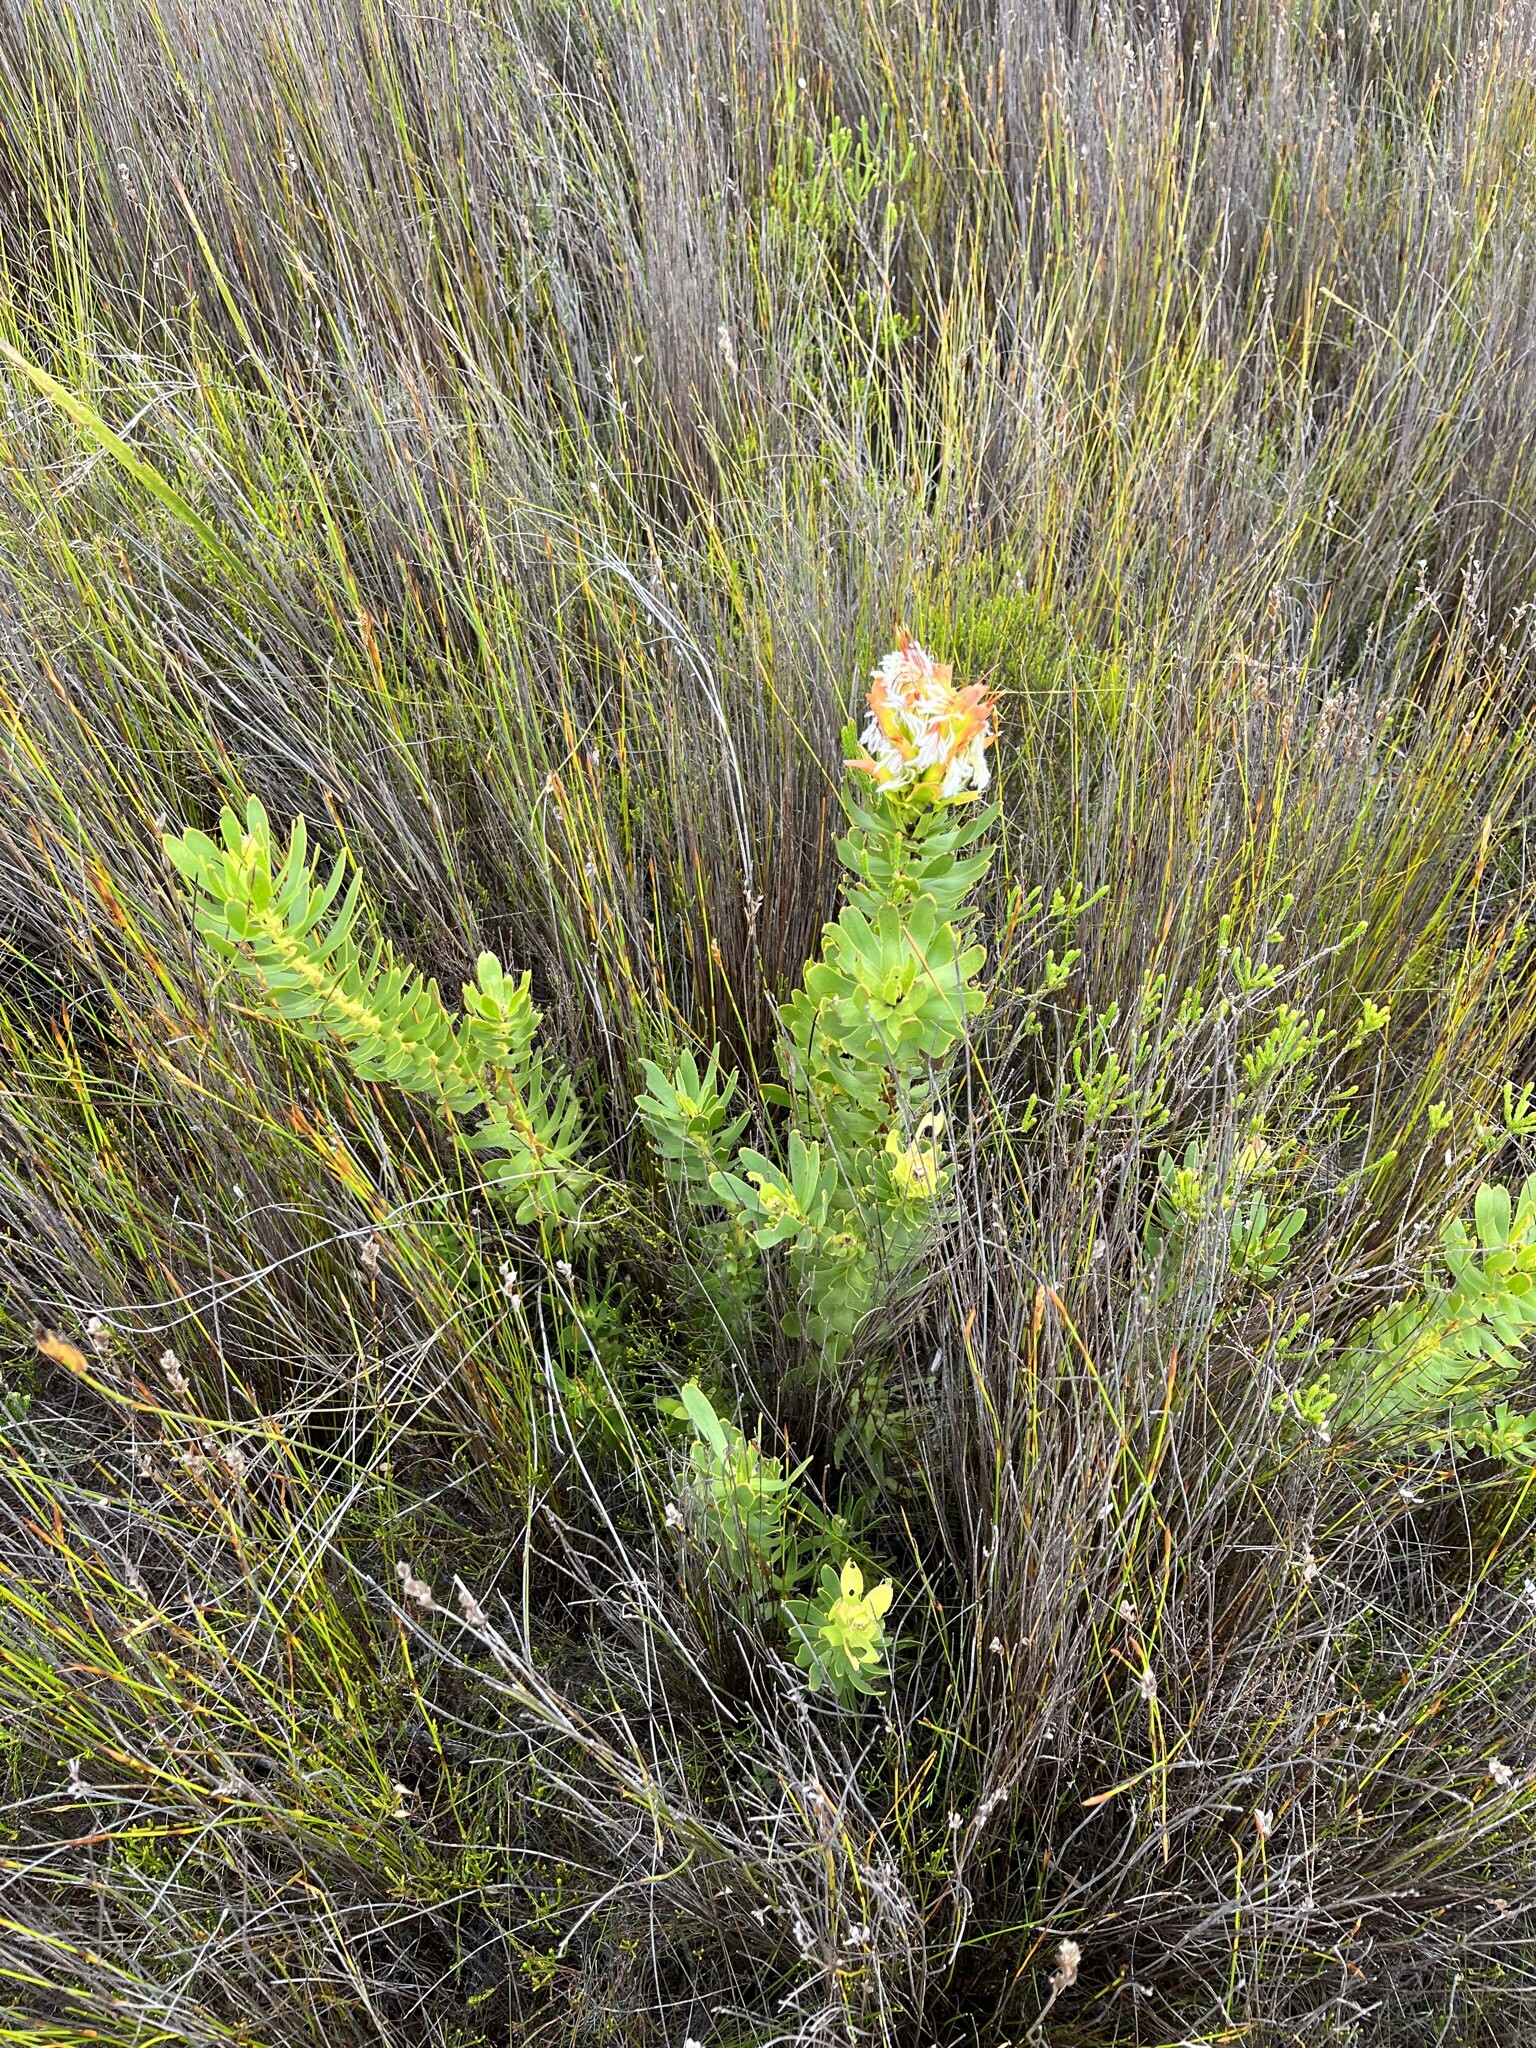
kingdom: Plantae
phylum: Tracheophyta
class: Magnoliopsida
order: Proteales
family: Proteaceae
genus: Mimetes
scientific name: Mimetes cucullatus
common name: Common pagoda
